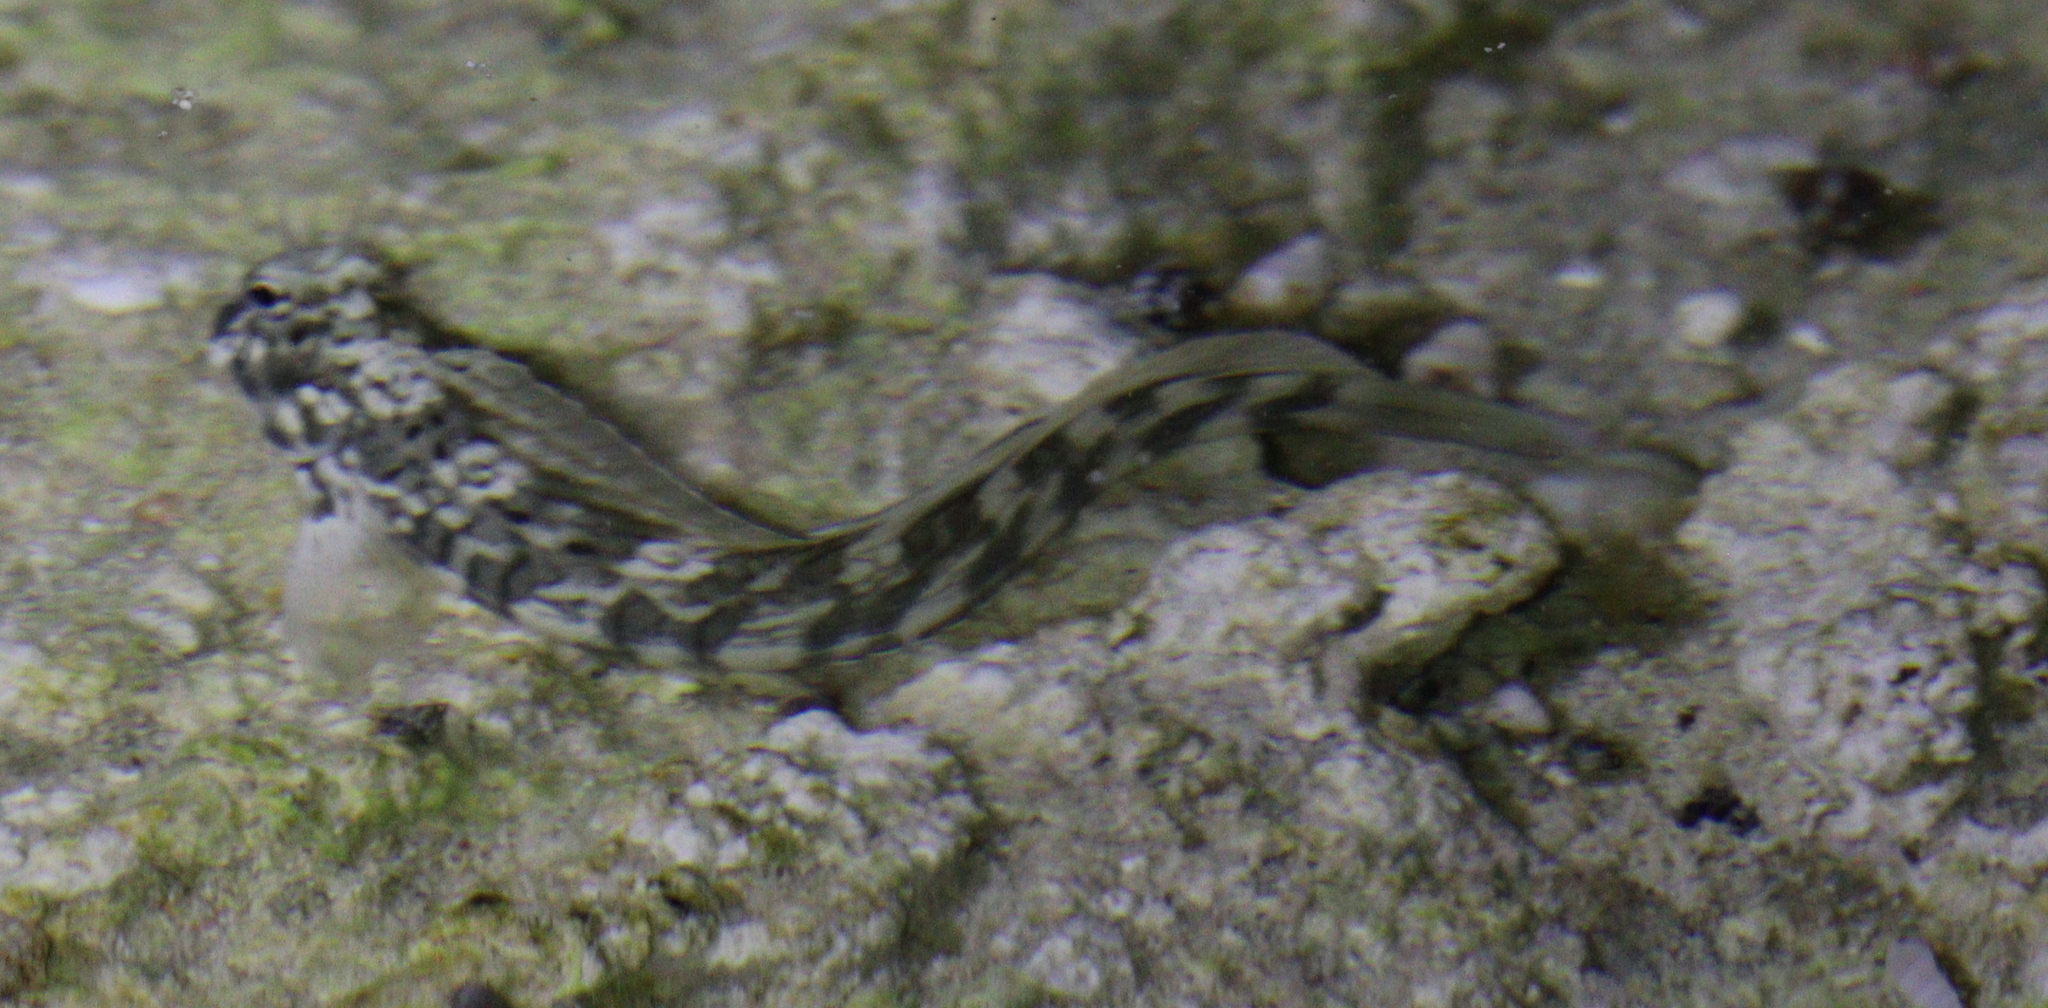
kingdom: Animalia
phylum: Chordata
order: Perciformes
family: Blenniidae
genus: Istiblennius
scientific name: Istiblennius rivulatus
